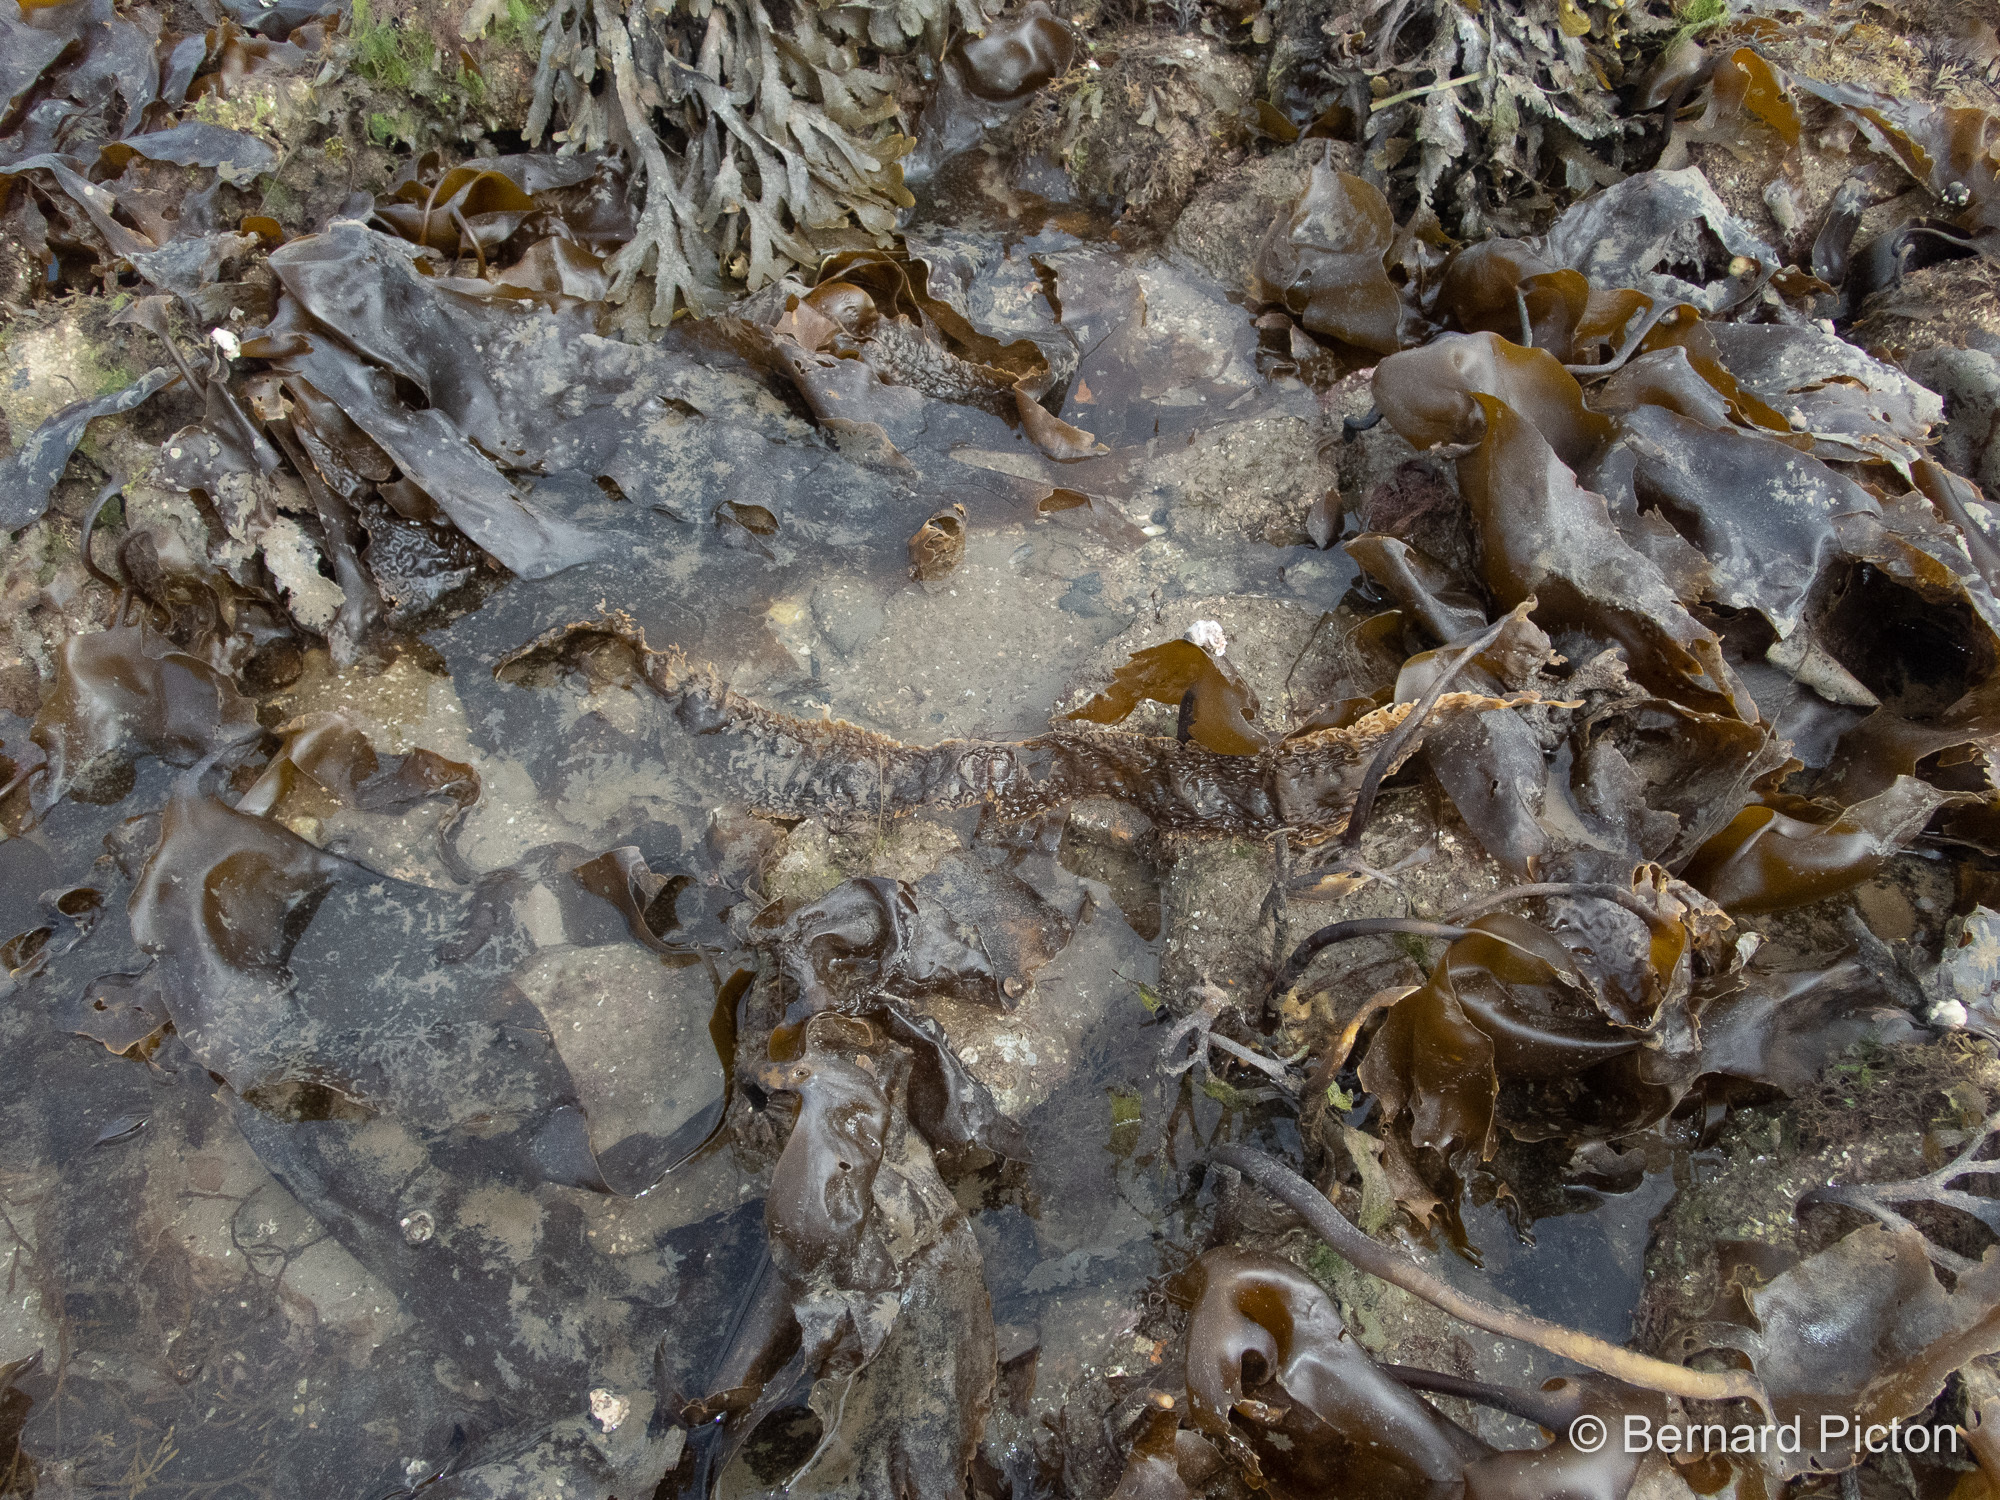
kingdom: Chromista
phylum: Ochrophyta
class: Phaeophyceae
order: Laminariales
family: Laminariaceae
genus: Saccharina
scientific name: Saccharina latissima
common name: Poor man's weather glass
